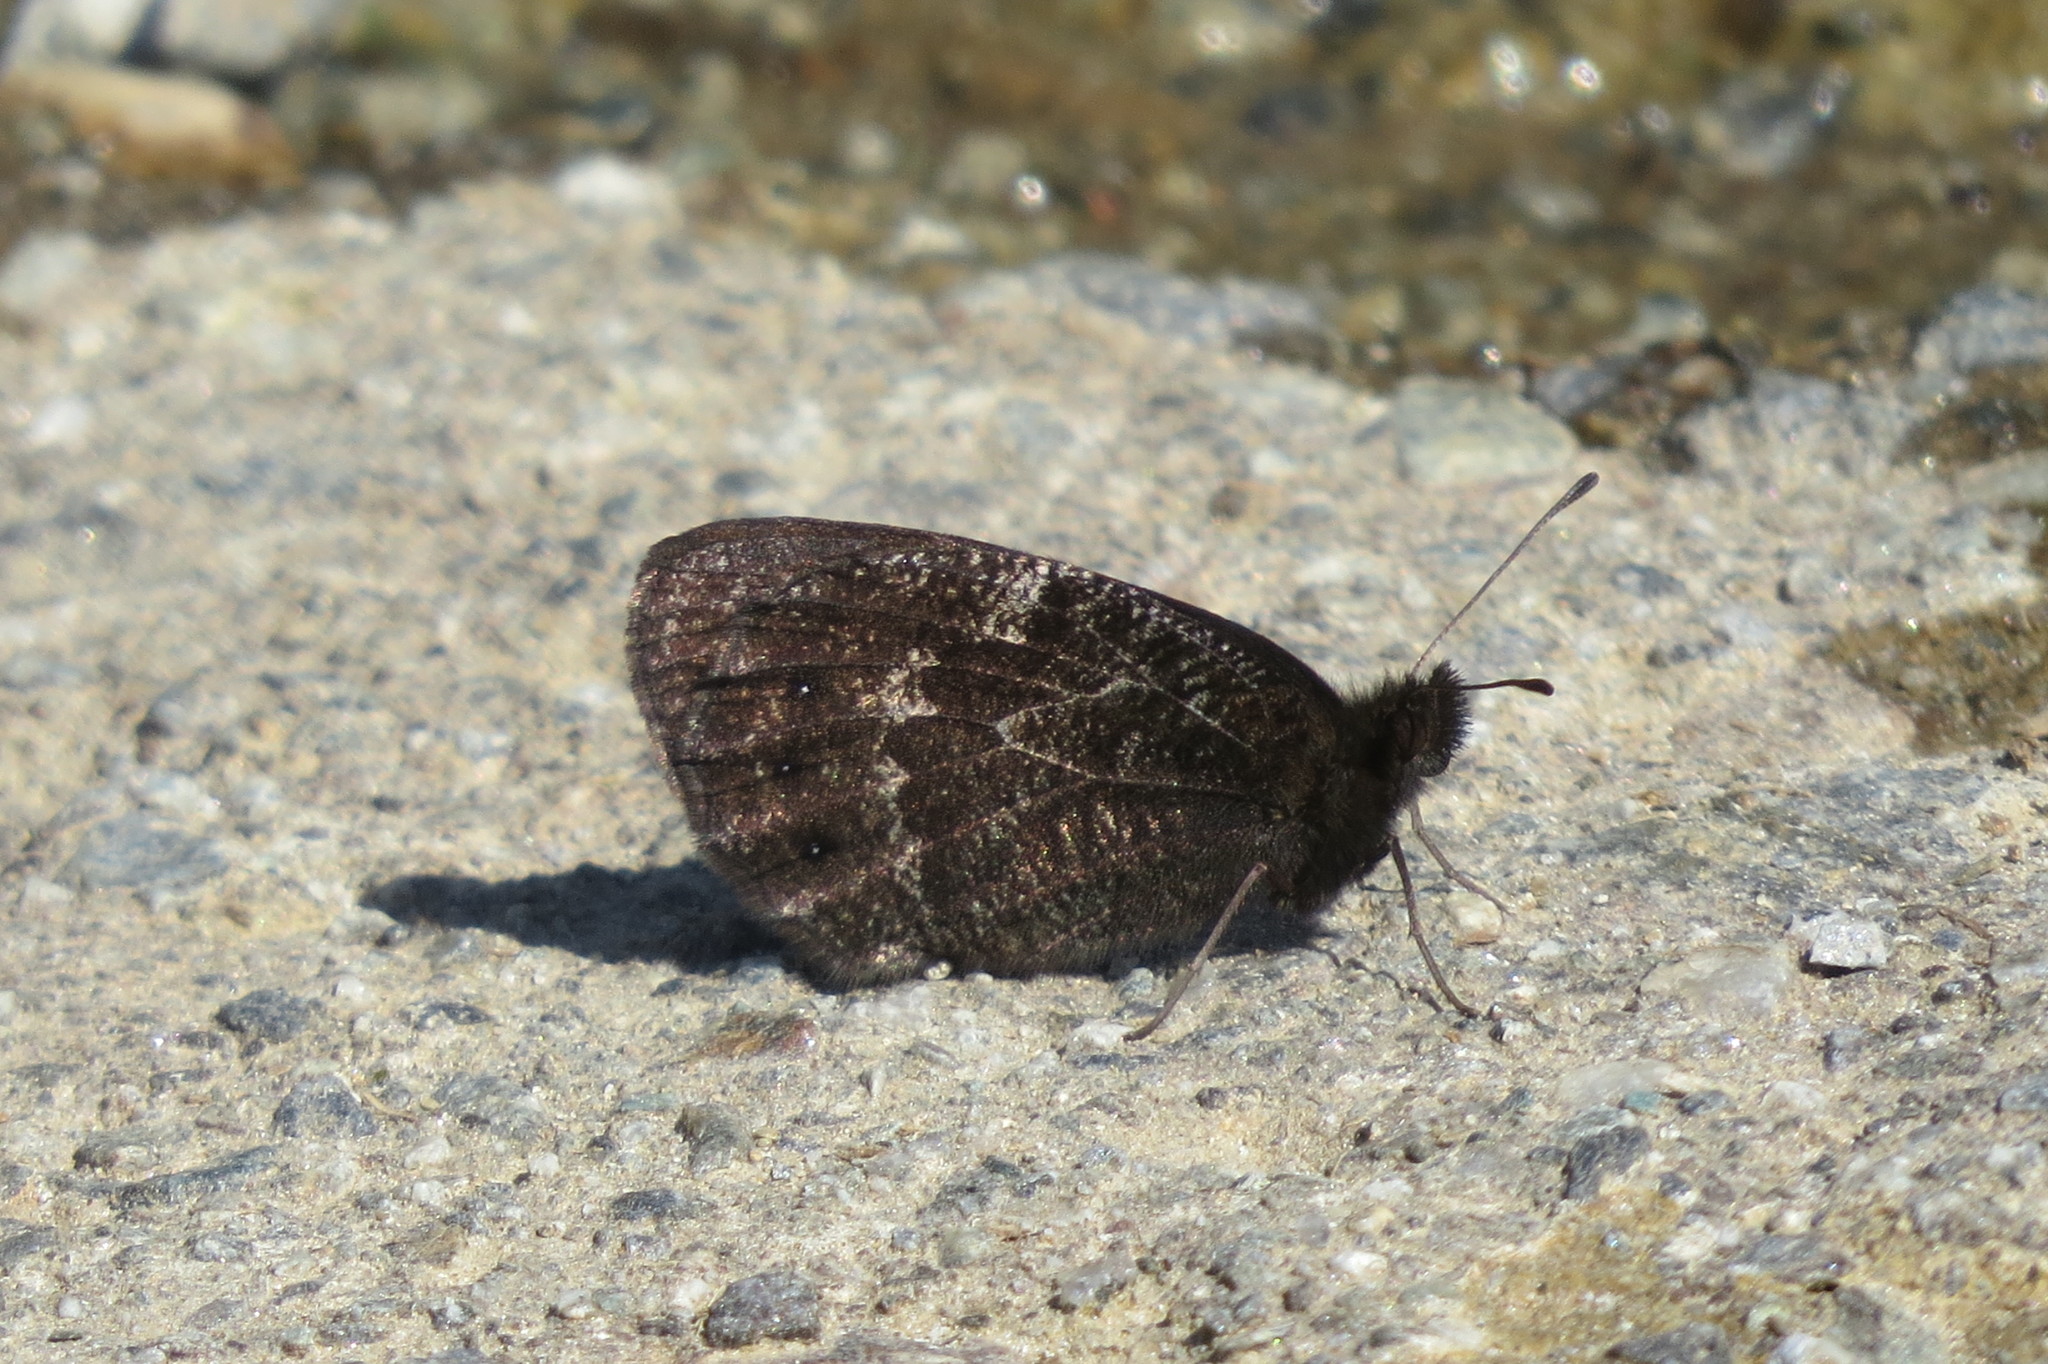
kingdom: Animalia
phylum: Arthropoda
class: Insecta
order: Lepidoptera
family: Nymphalidae
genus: Erebia
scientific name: Erebia montanus
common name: Marbled ringlet
